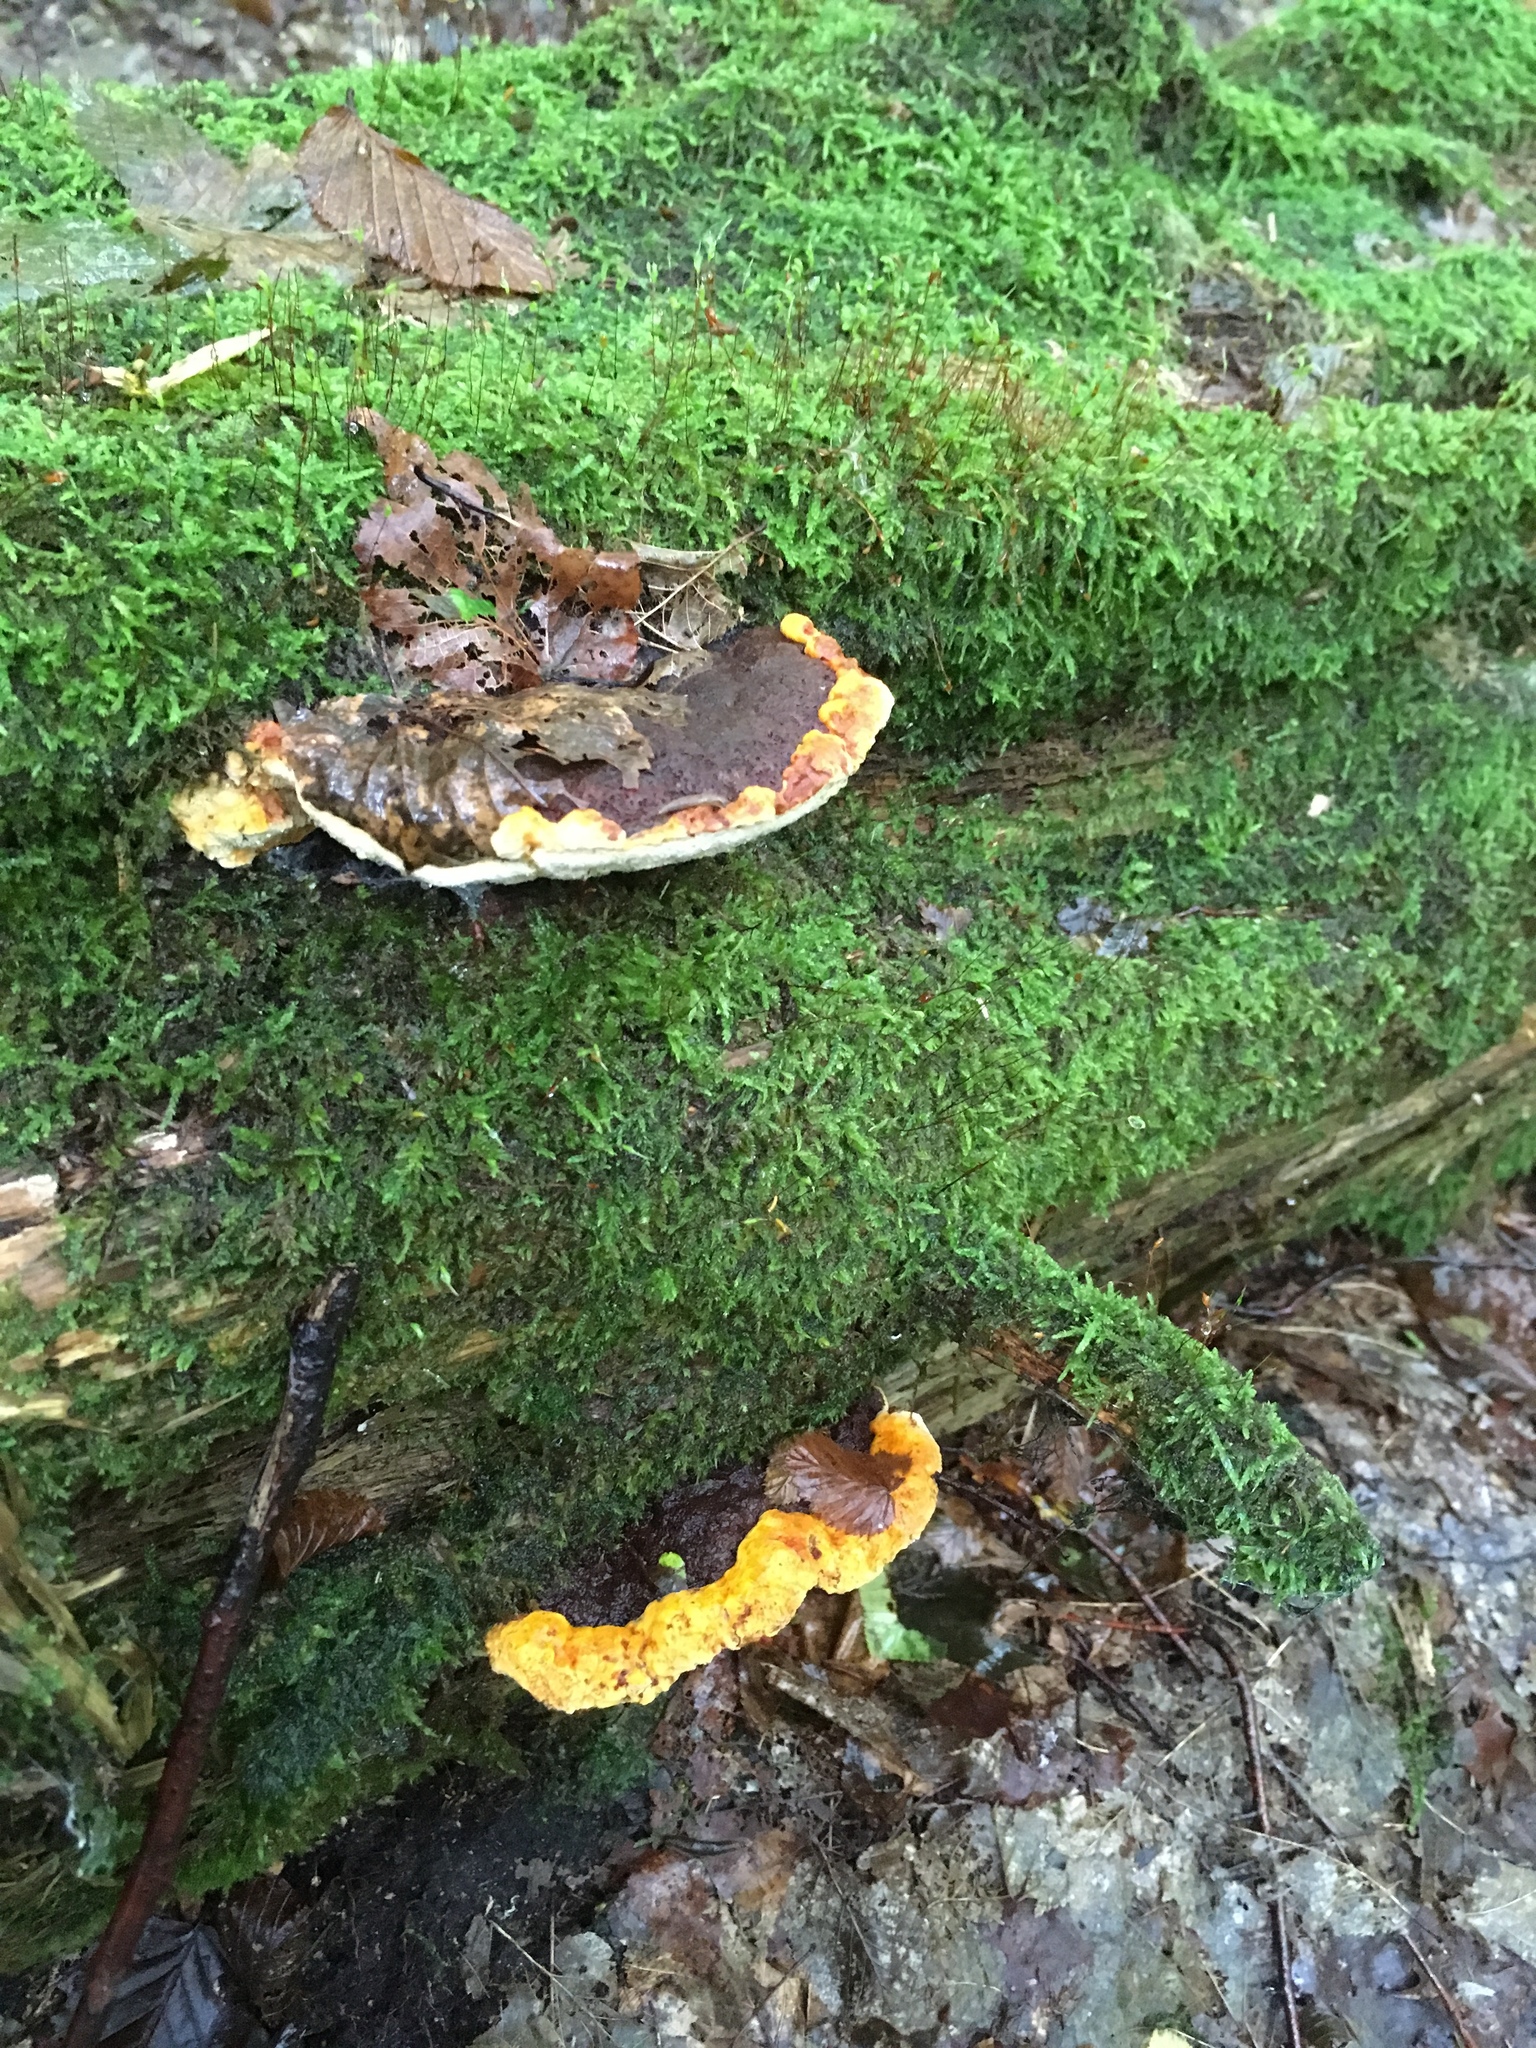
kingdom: Fungi
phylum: Basidiomycota
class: Agaricomycetes
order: Gloeophyllales
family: Gloeophyllaceae
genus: Gloeophyllum
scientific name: Gloeophyllum odoratum
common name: Anise mazegill
